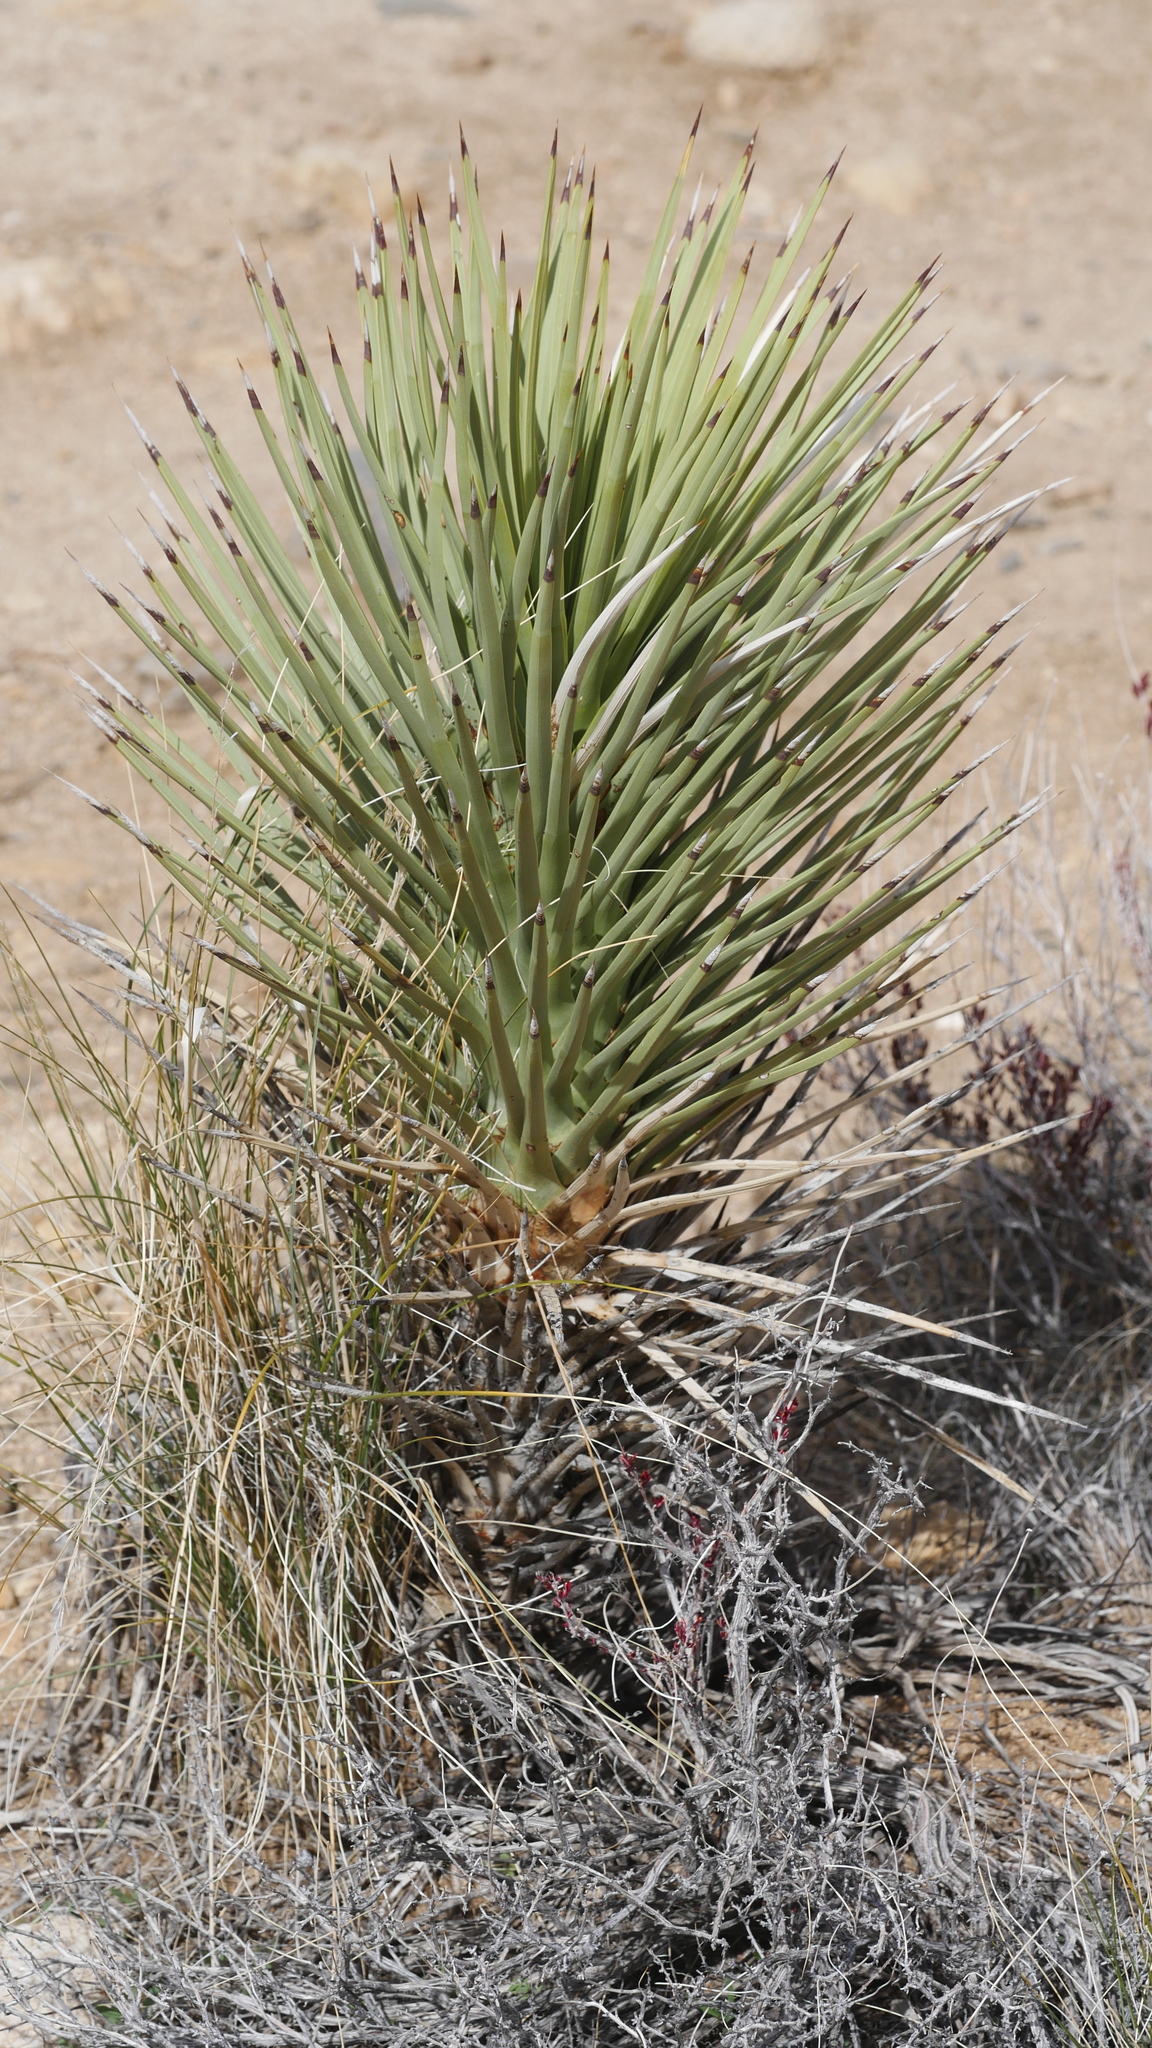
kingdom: Plantae
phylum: Tracheophyta
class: Liliopsida
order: Asparagales
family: Asparagaceae
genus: Yucca
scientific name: Yucca brevifolia
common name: Joshua tree
